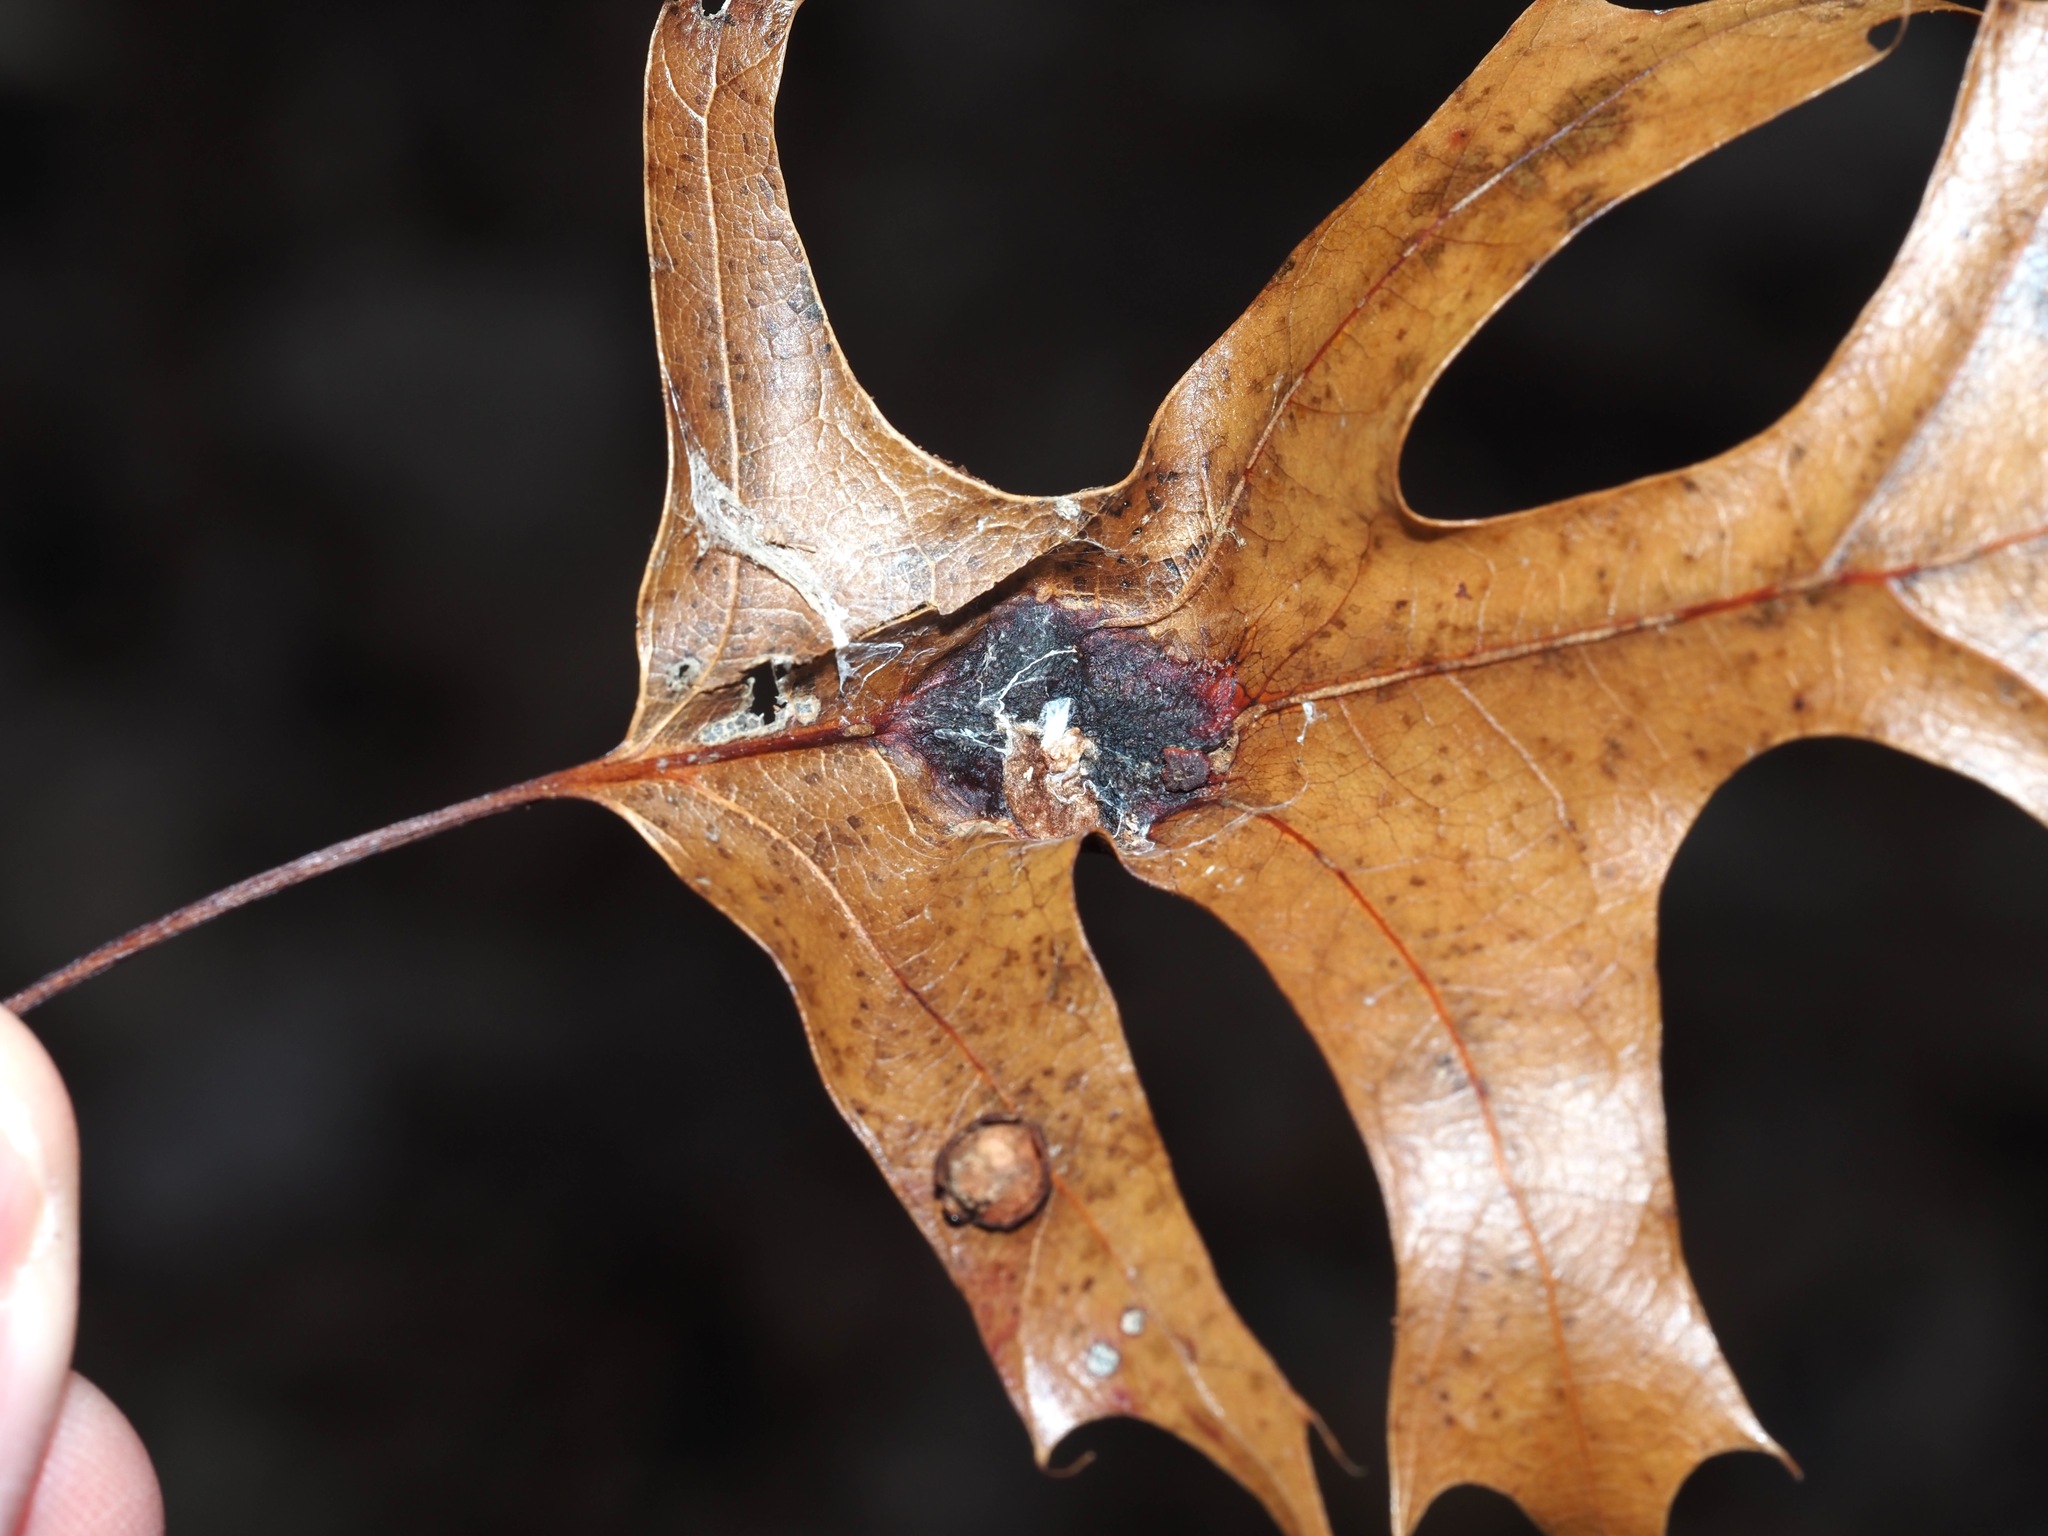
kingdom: Animalia
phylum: Arthropoda
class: Insecta
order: Hymenoptera
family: Cynipidae
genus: Melikaiella
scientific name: Melikaiella tumifica
